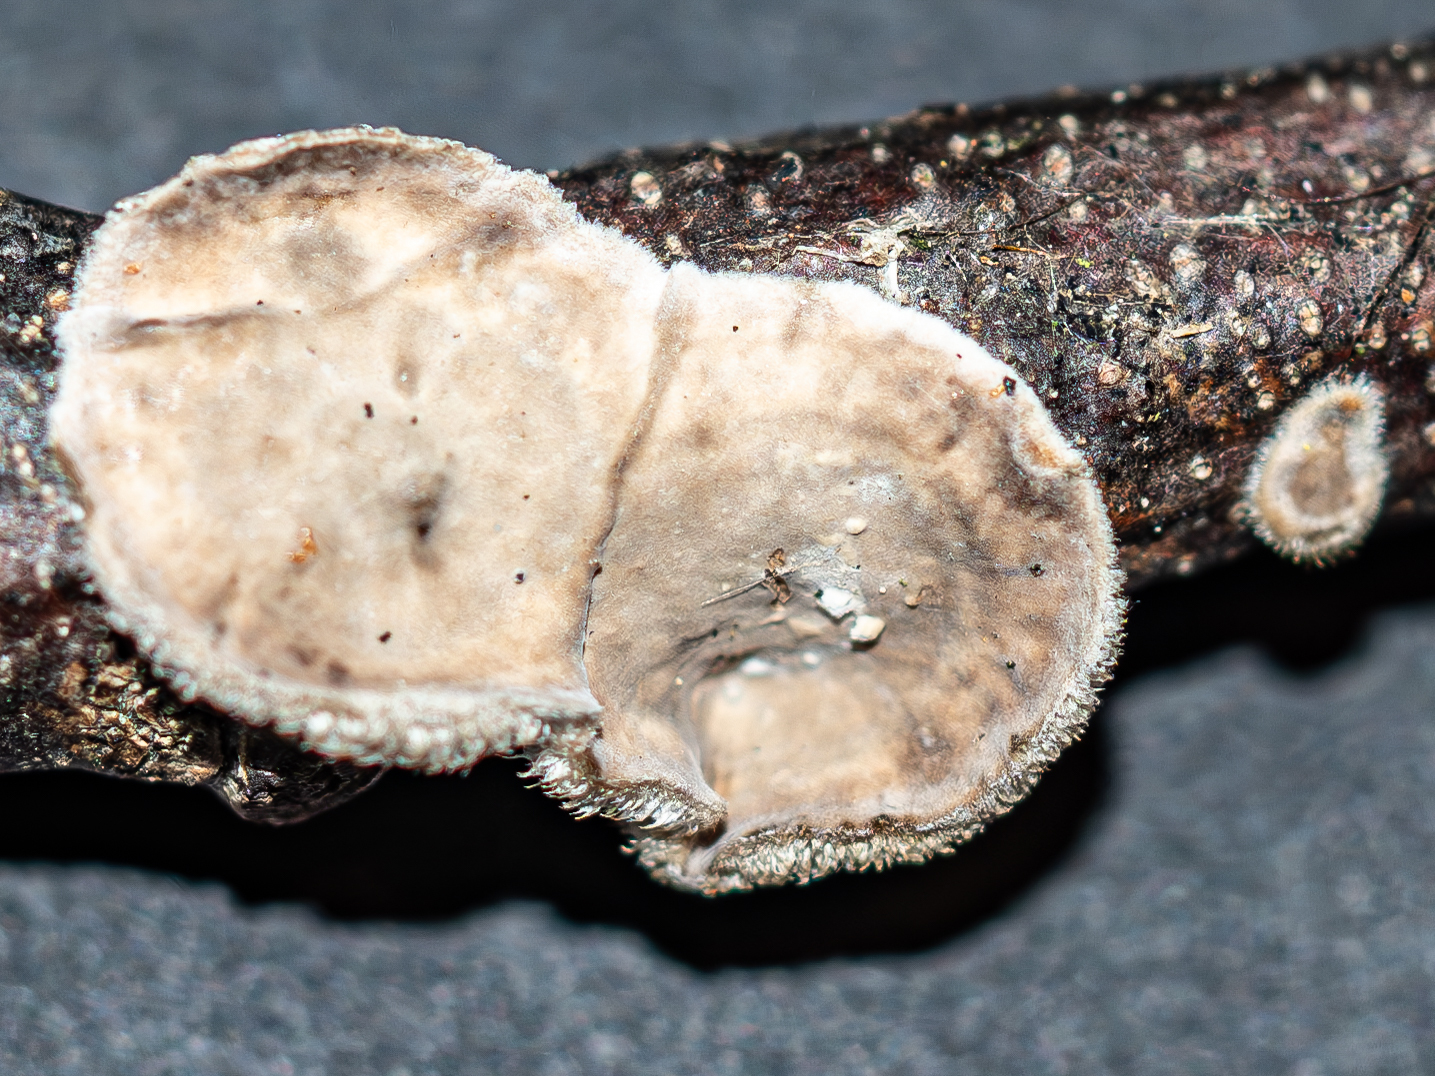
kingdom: Fungi
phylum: Basidiomycota
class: Agaricomycetes
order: Russulales
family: Stereaceae
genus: Stereum
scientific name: Stereum hirsutum
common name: Hairy curtain crust
